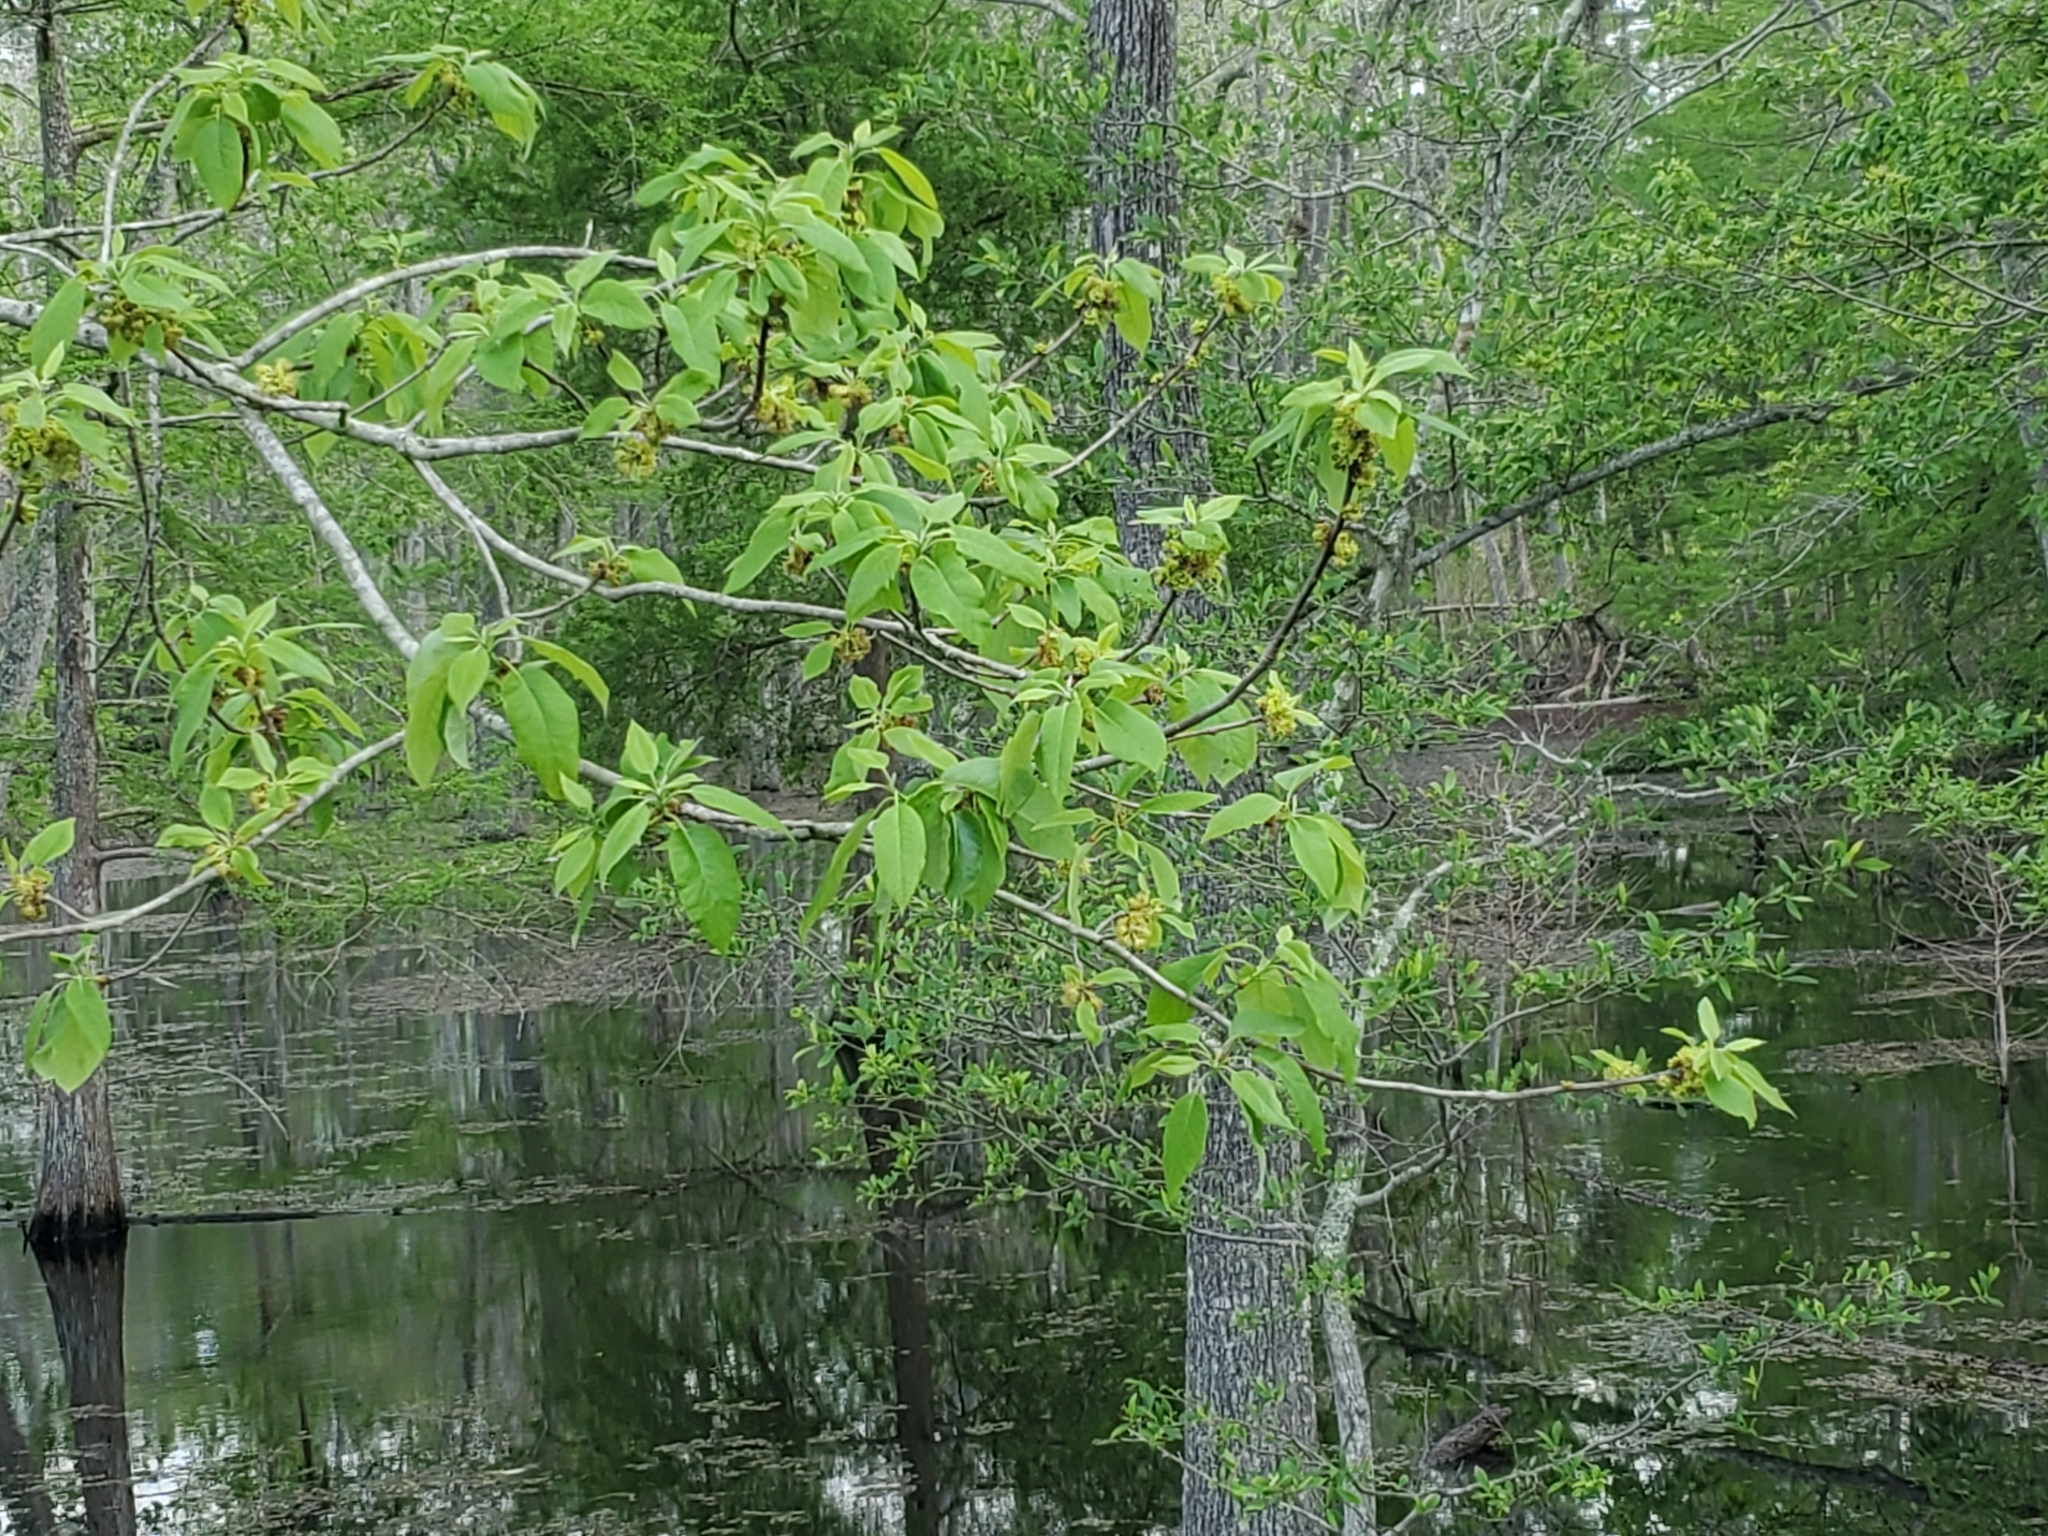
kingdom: Plantae
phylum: Tracheophyta
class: Magnoliopsida
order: Cornales
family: Nyssaceae
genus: Nyssa
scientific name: Nyssa aquatica
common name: Swamp tupelo
